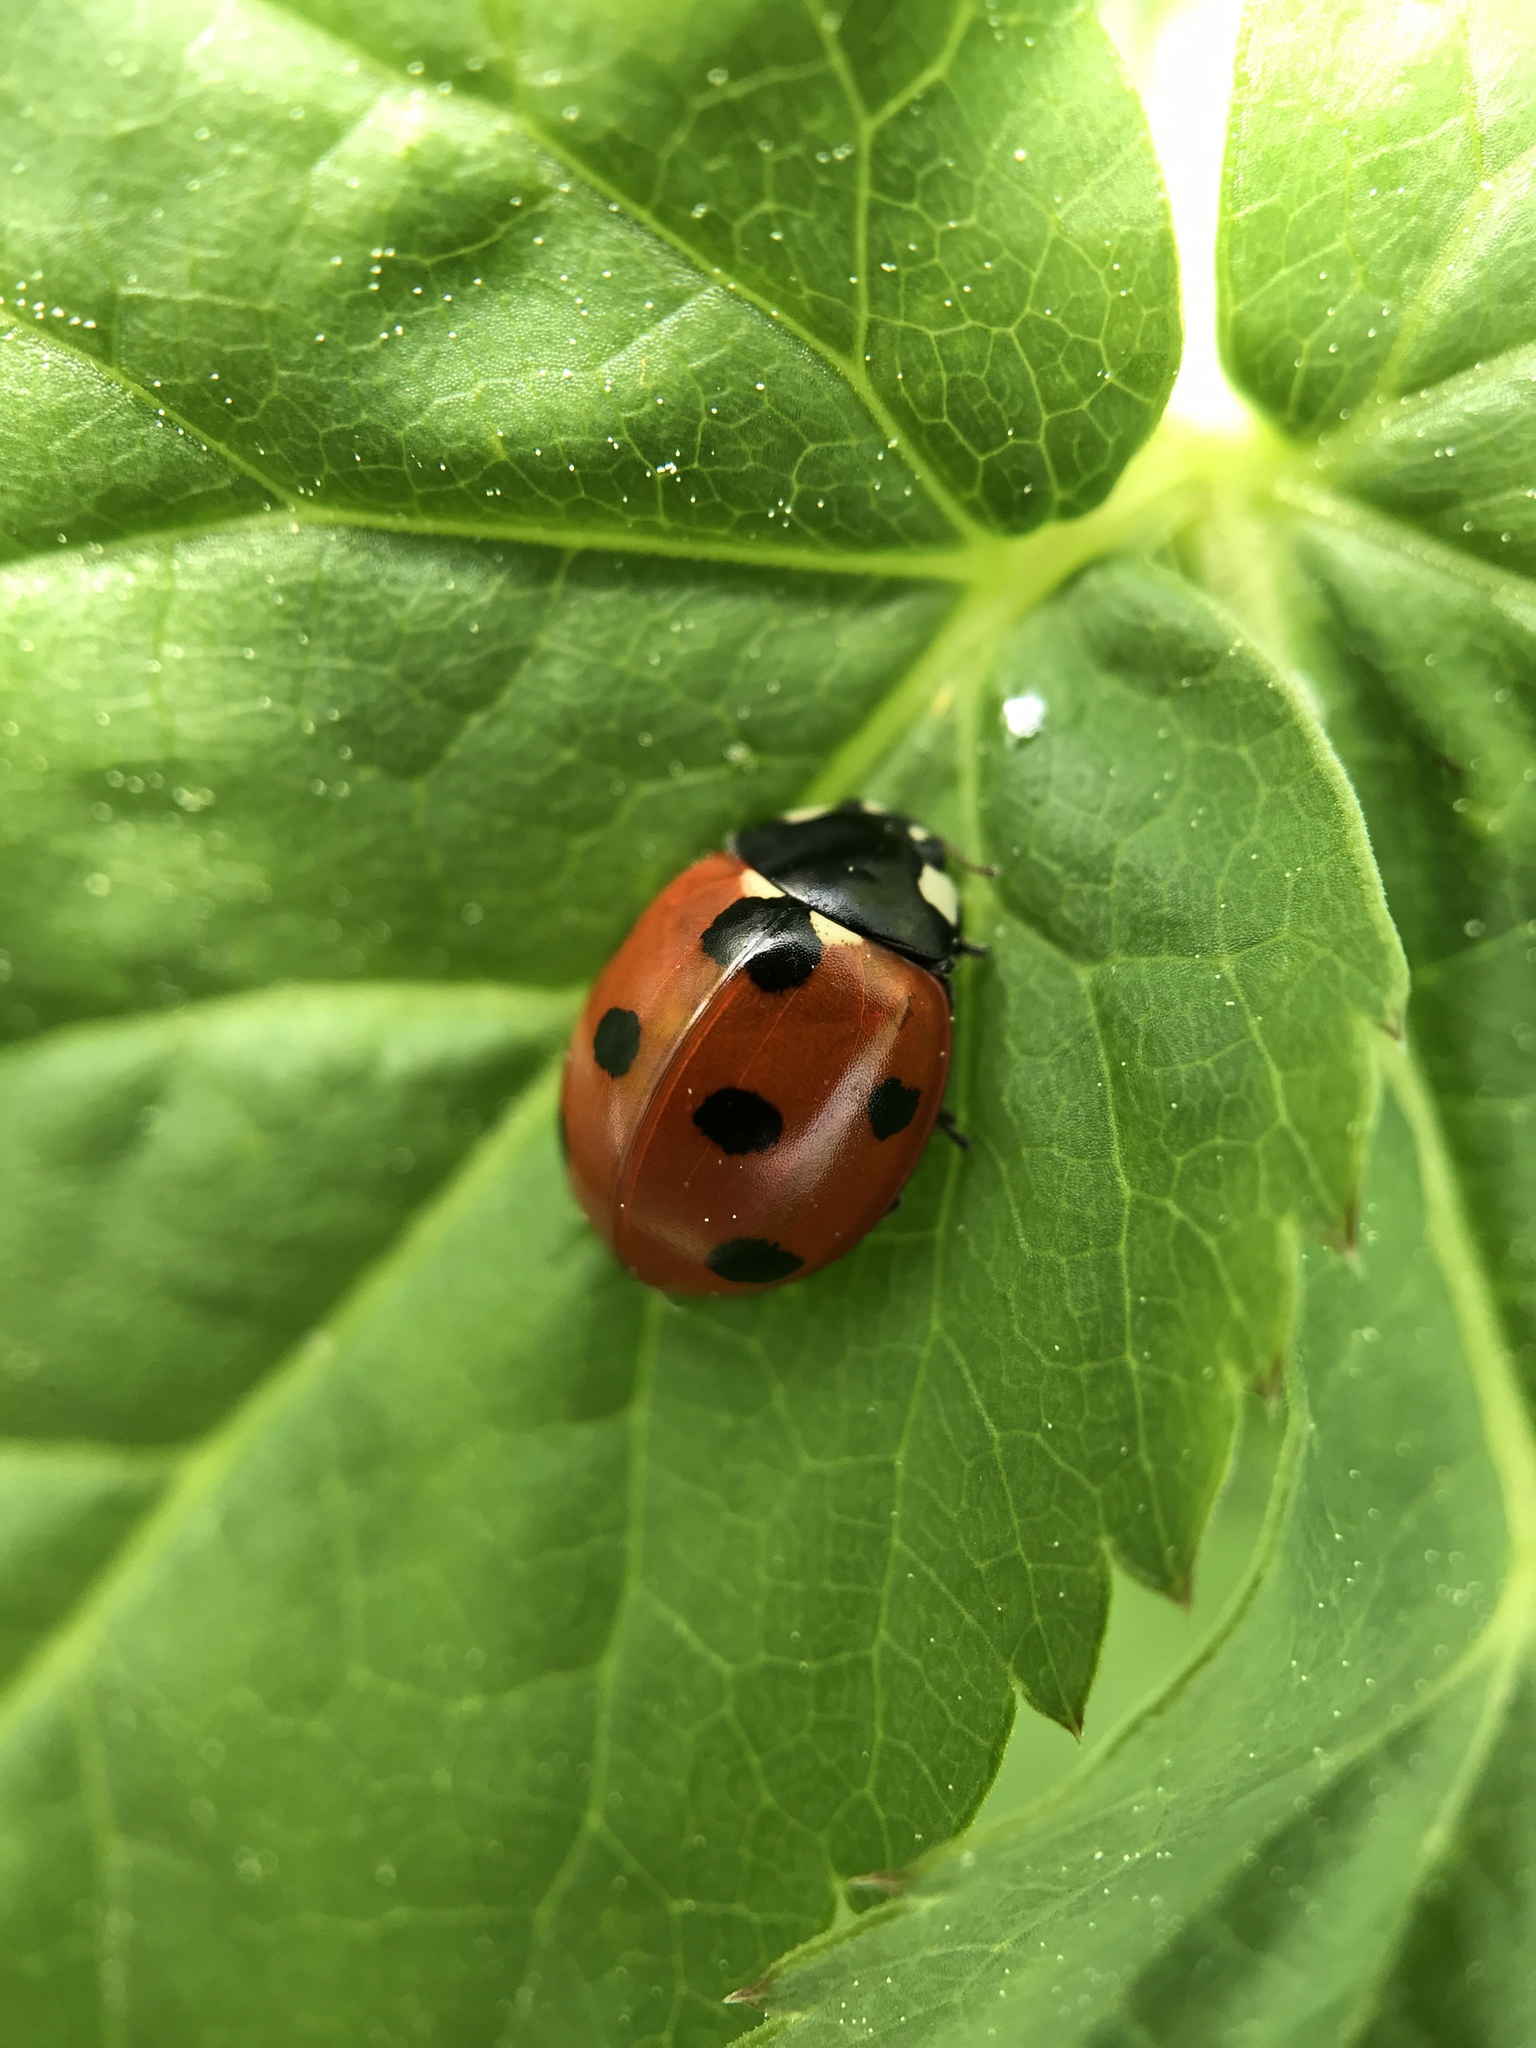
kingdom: Animalia
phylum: Arthropoda
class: Insecta
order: Coleoptera
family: Coccinellidae
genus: Coccinella
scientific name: Coccinella septempunctata
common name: Sevenspotted lady beetle
